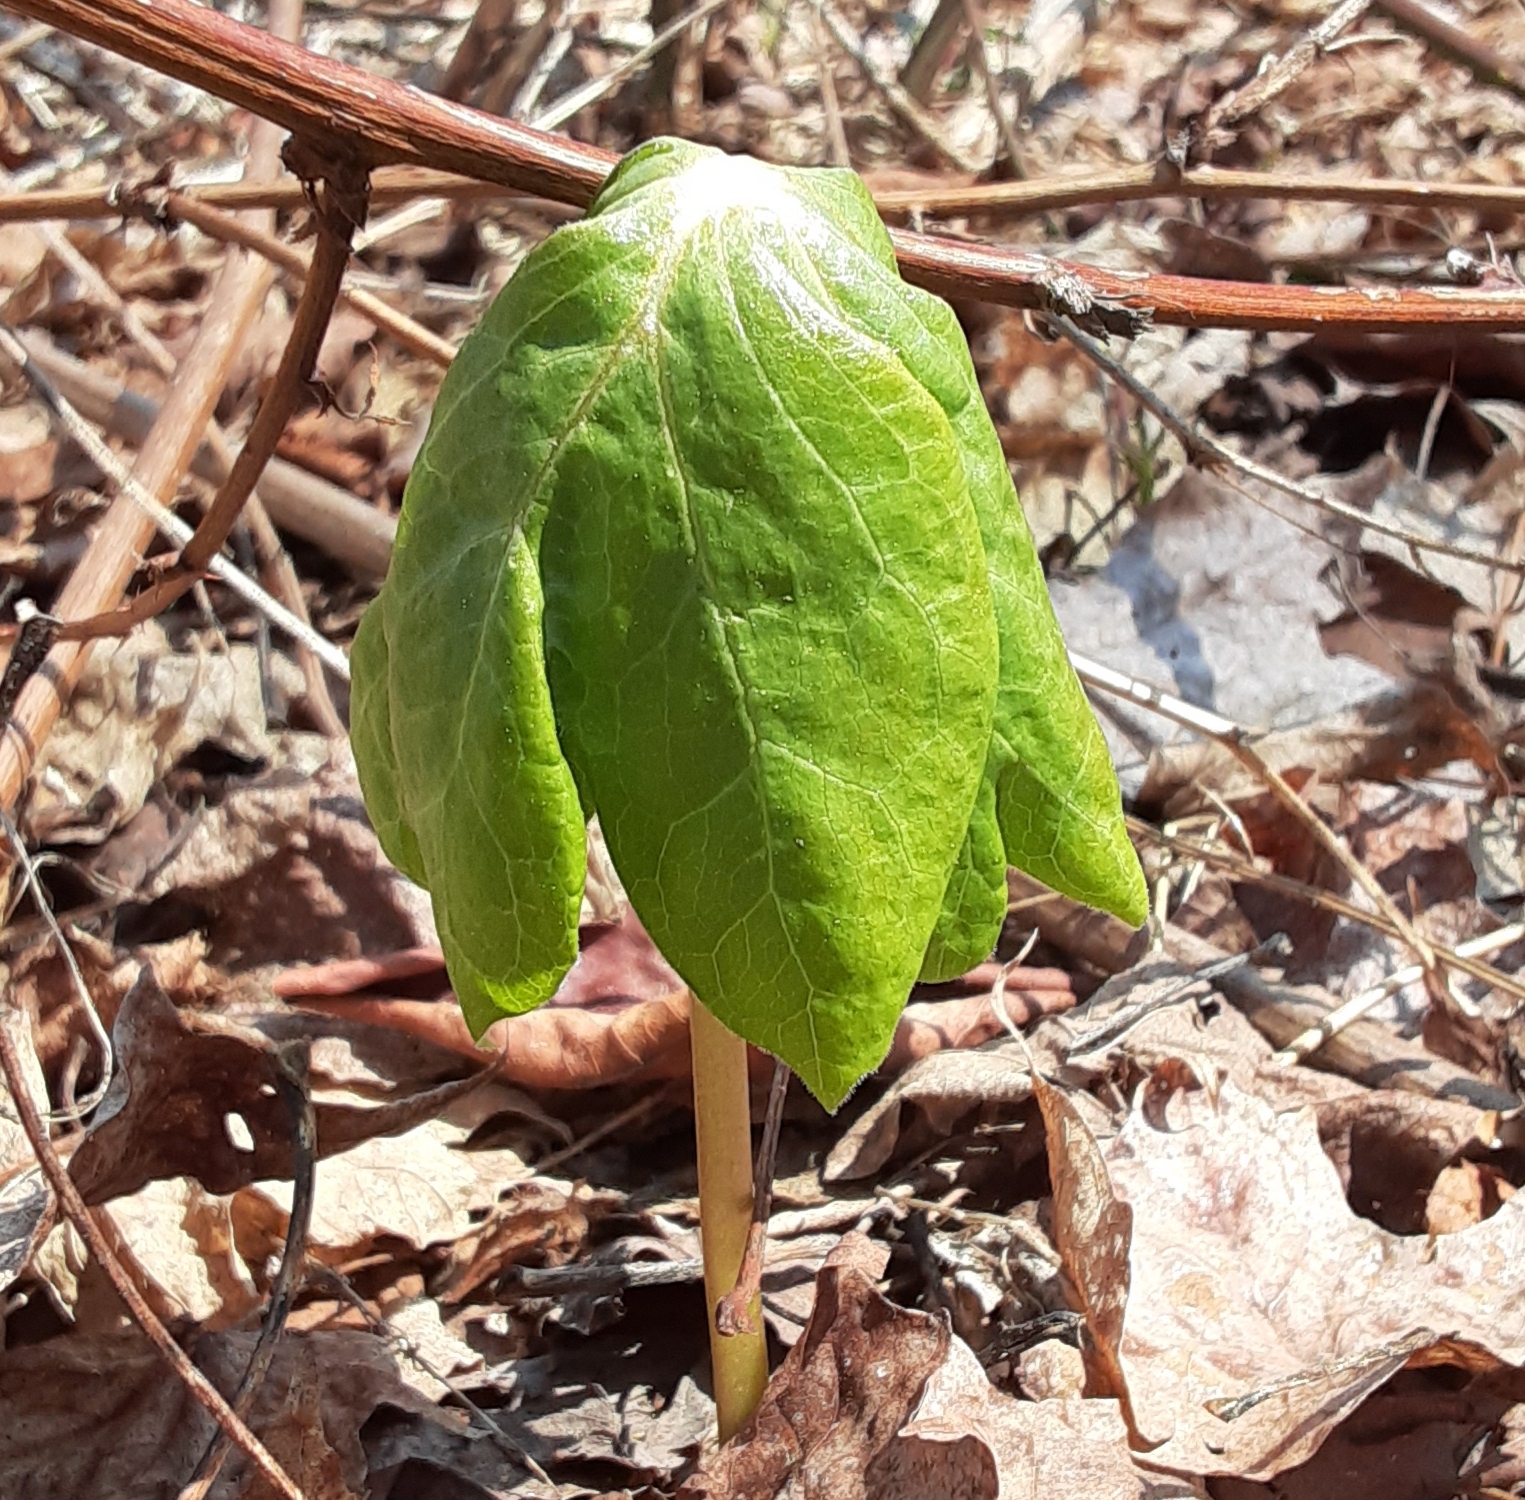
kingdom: Plantae
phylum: Tracheophyta
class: Magnoliopsida
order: Ranunculales
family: Berberidaceae
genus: Podophyllum
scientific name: Podophyllum peltatum
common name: Wild mandrake
